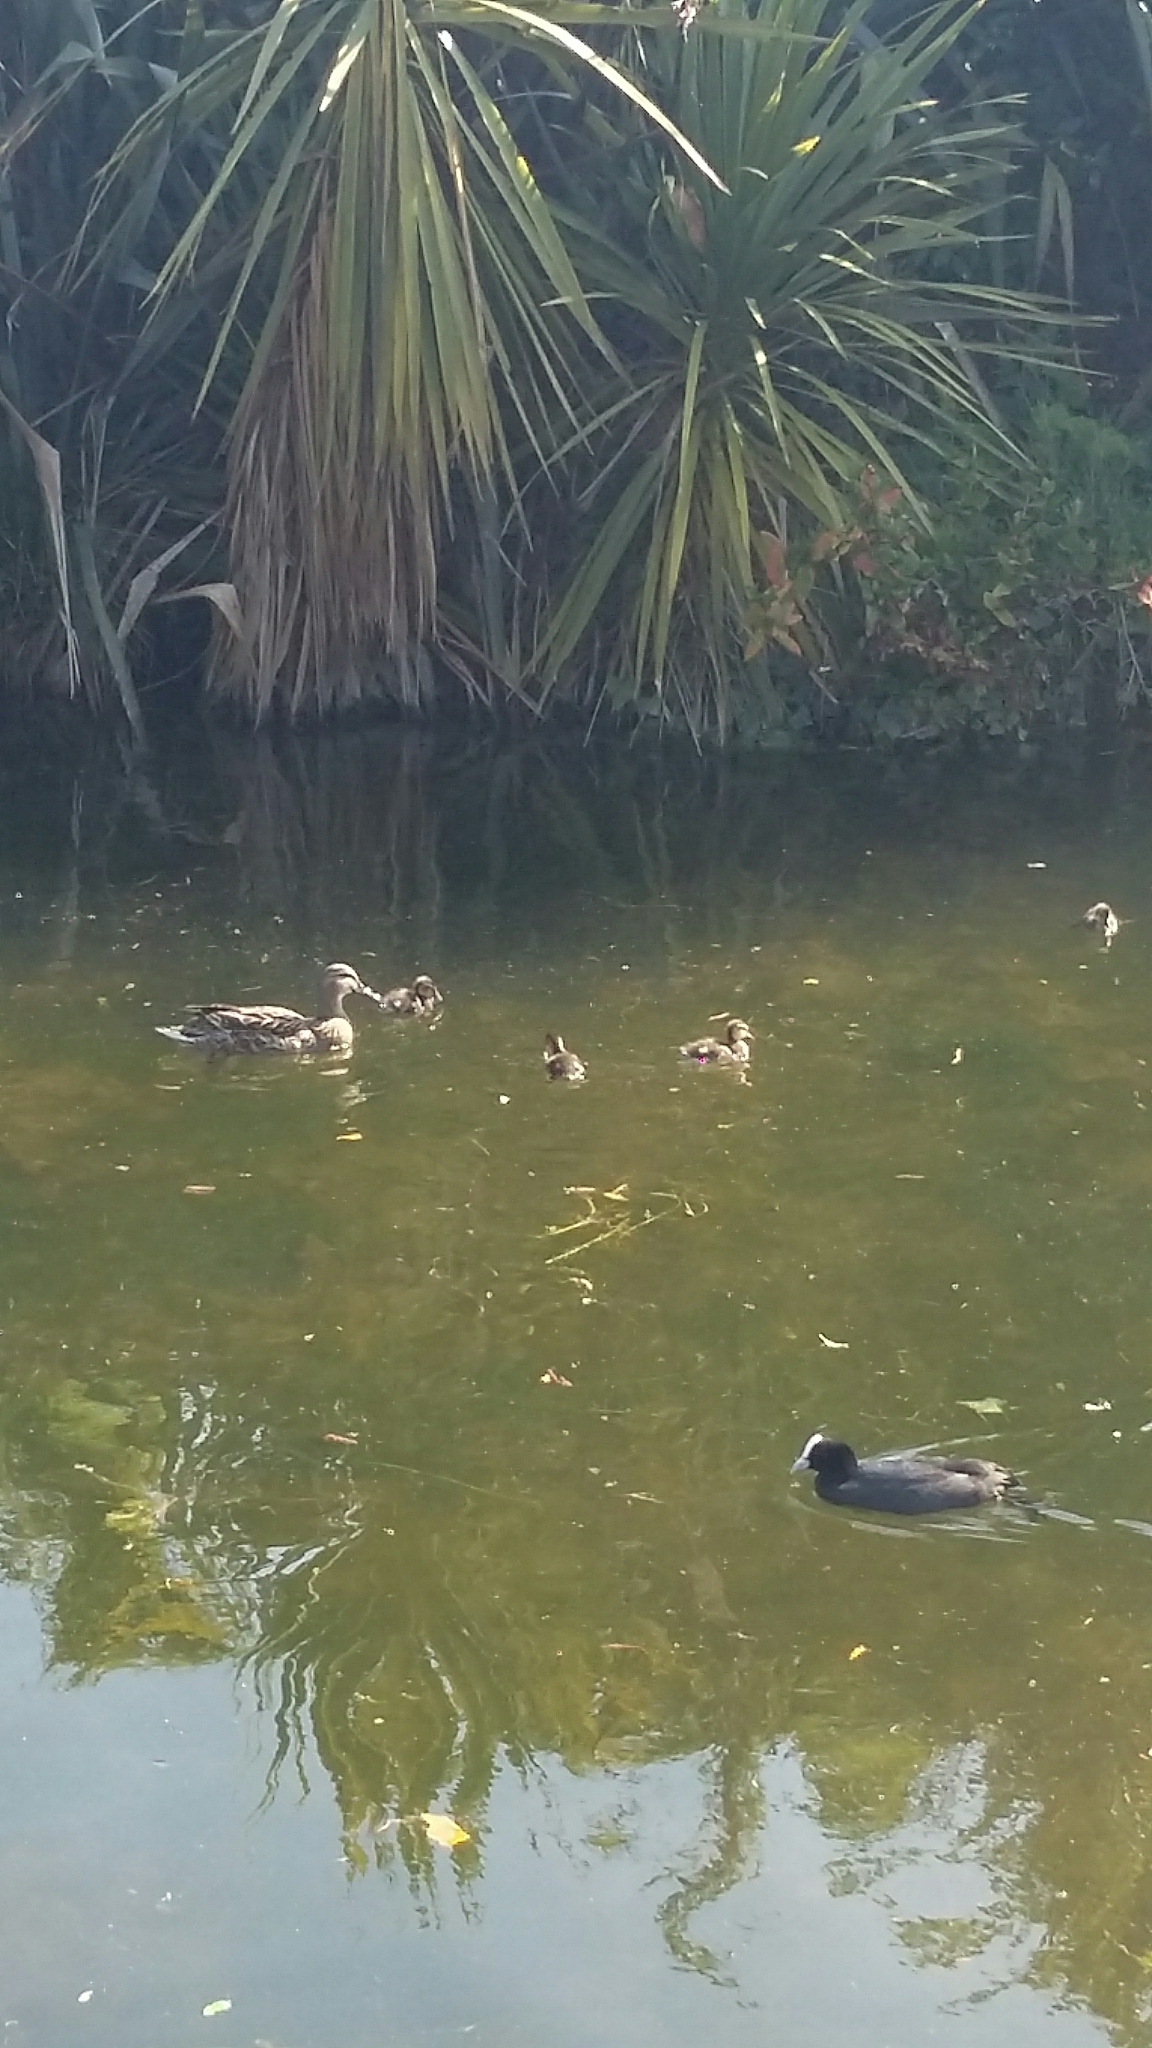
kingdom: Animalia
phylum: Chordata
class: Aves
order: Anseriformes
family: Anatidae
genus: Anas
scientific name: Anas platyrhynchos
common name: Mallard
